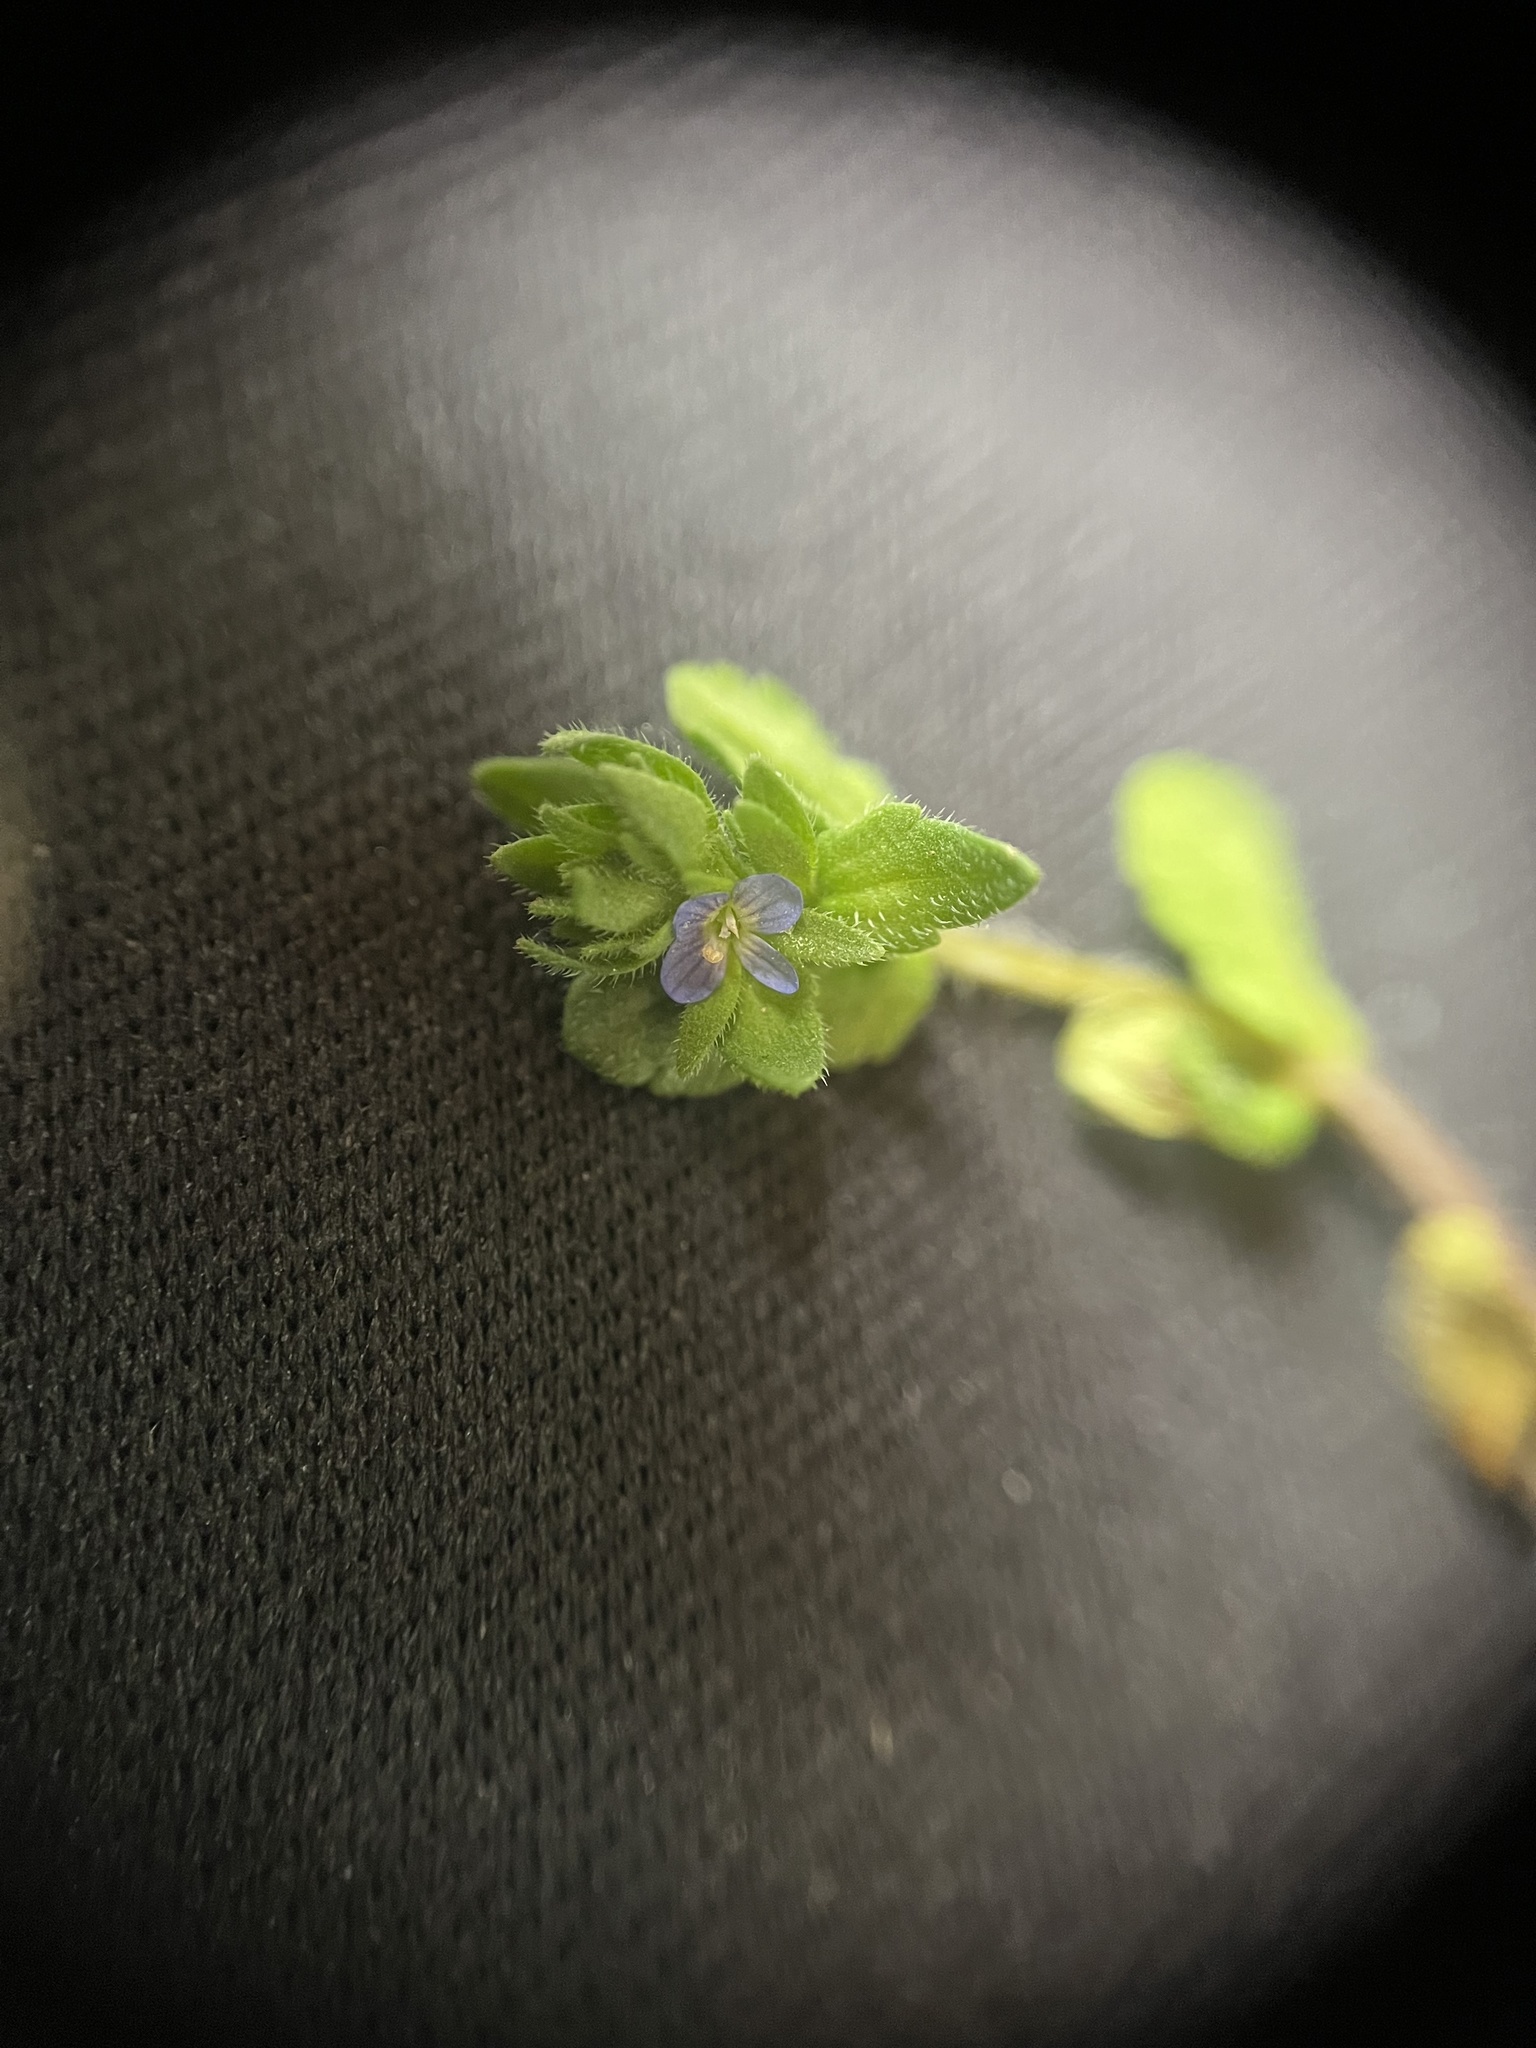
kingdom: Plantae
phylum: Tracheophyta
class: Magnoliopsida
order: Lamiales
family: Plantaginaceae
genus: Veronica
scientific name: Veronica arvensis
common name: Corn speedwell
